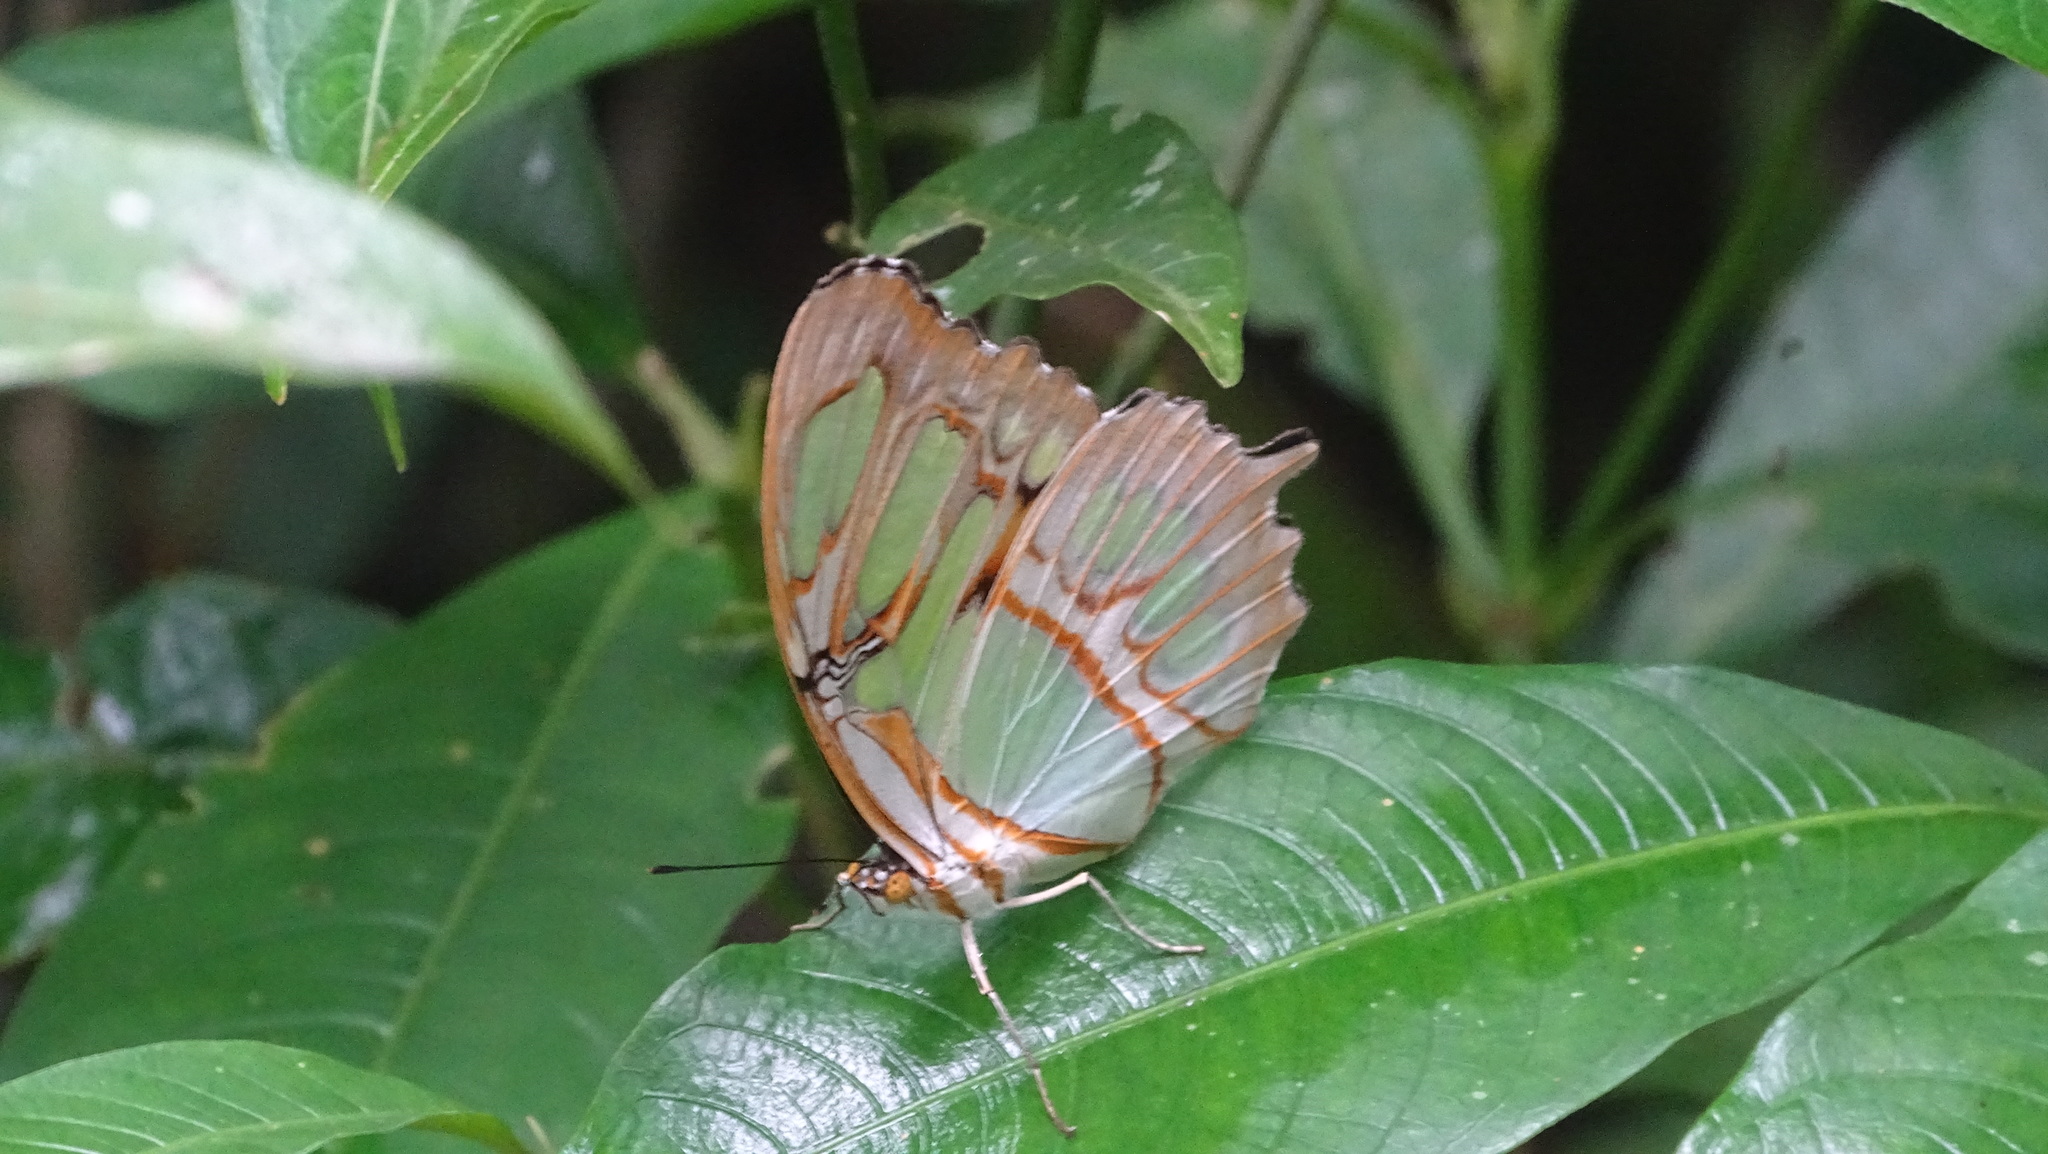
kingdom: Animalia
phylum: Arthropoda
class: Insecta
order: Lepidoptera
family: Nymphalidae
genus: Siproeta
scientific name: Siproeta stelenes
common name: Malachite
